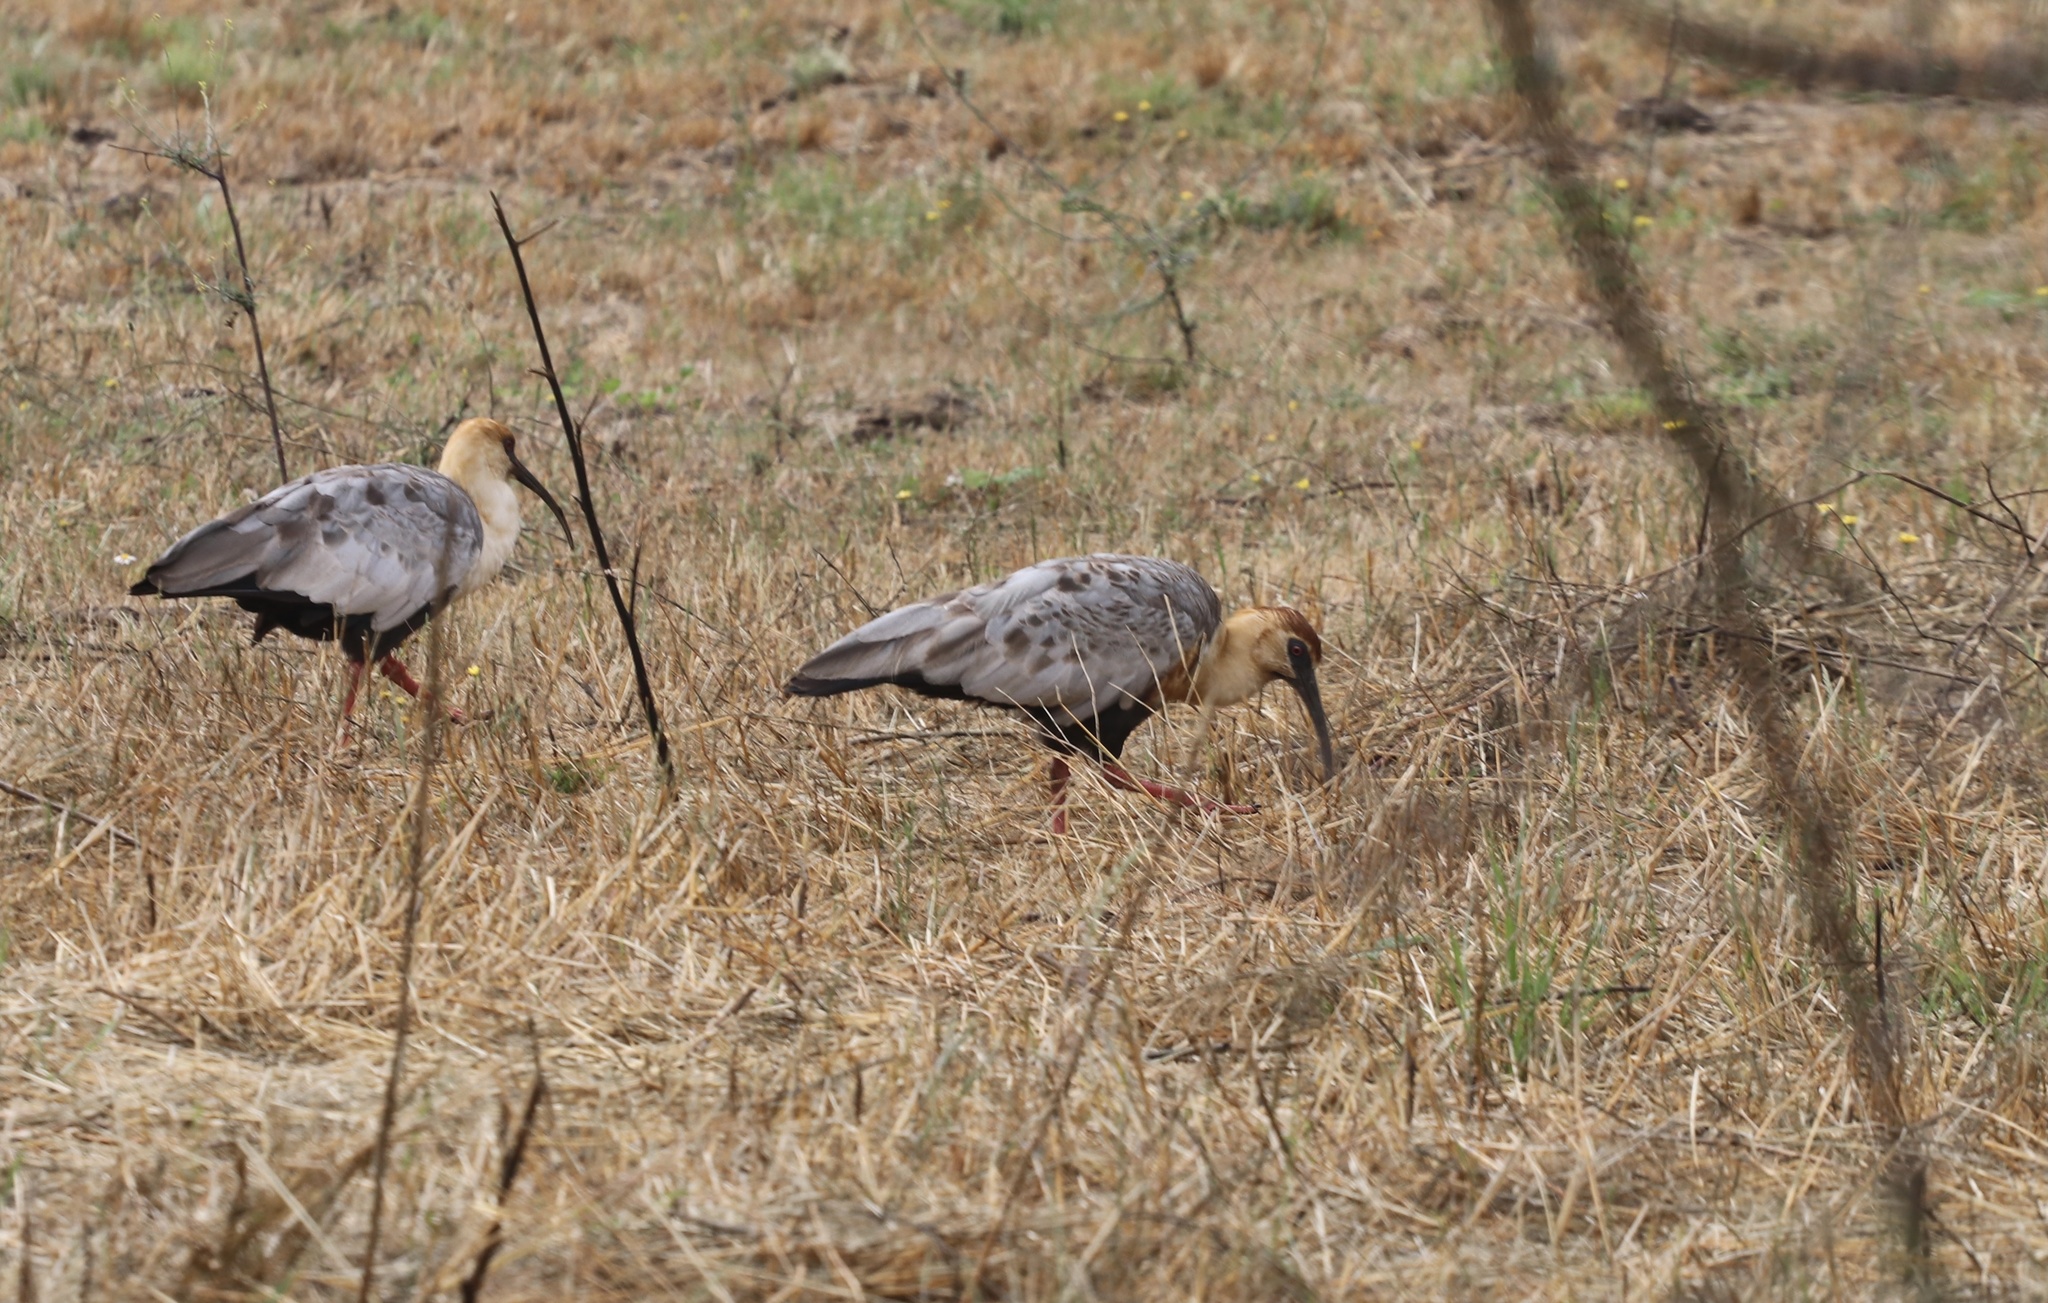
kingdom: Animalia
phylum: Chordata
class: Aves
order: Pelecaniformes
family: Threskiornithidae
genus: Theristicus
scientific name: Theristicus melanopis
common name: Black-faced ibis
